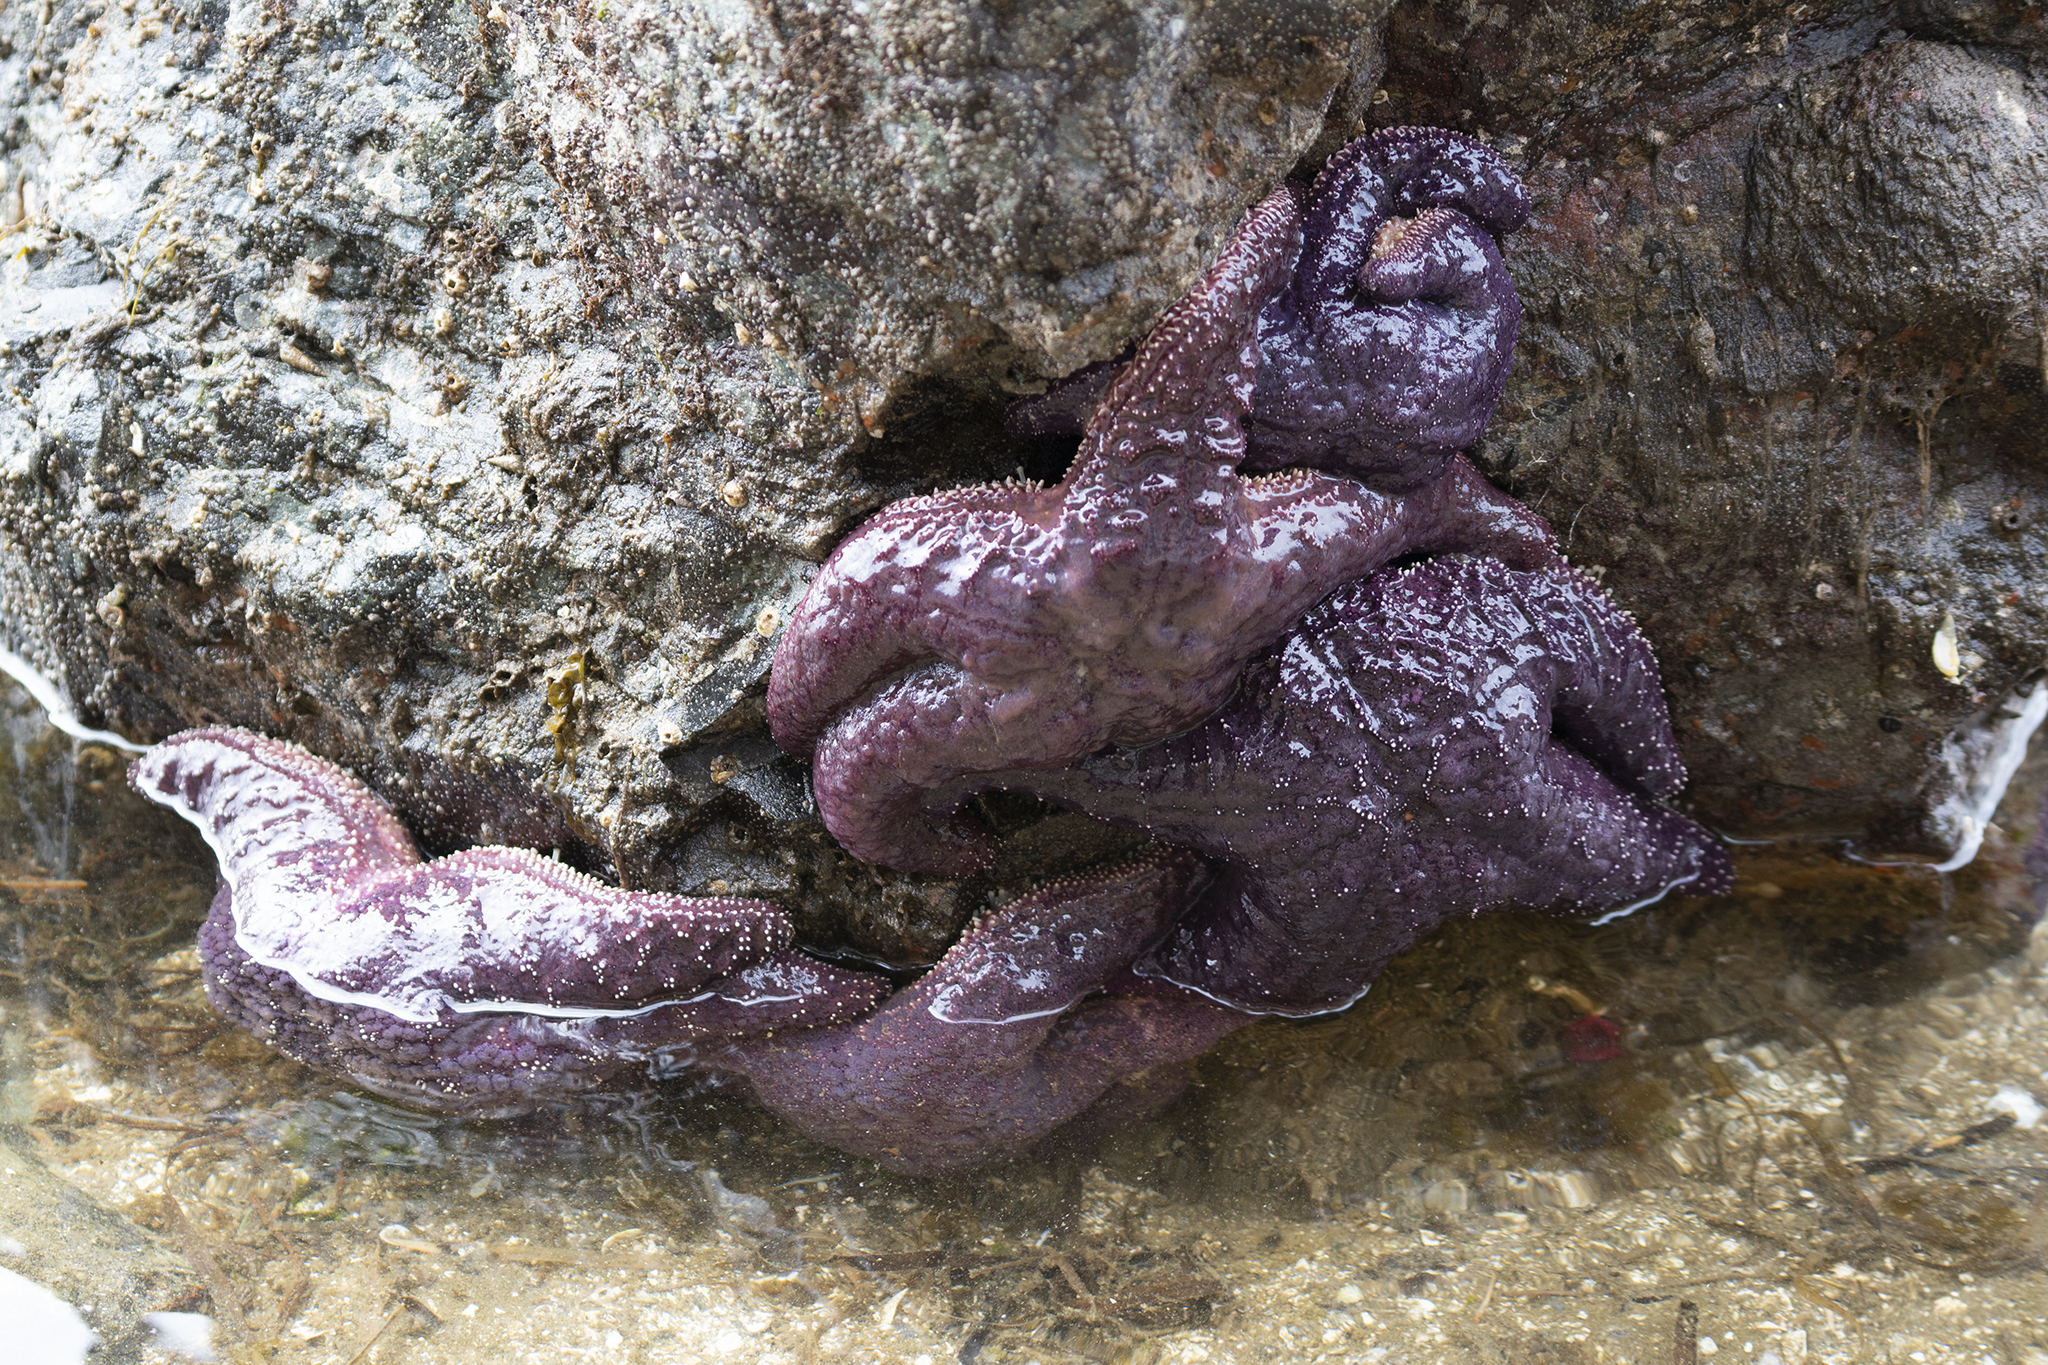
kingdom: Animalia
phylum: Echinodermata
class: Asteroidea
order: Forcipulatida
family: Asteriidae
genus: Pisaster
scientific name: Pisaster ochraceus
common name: Ochre stars
